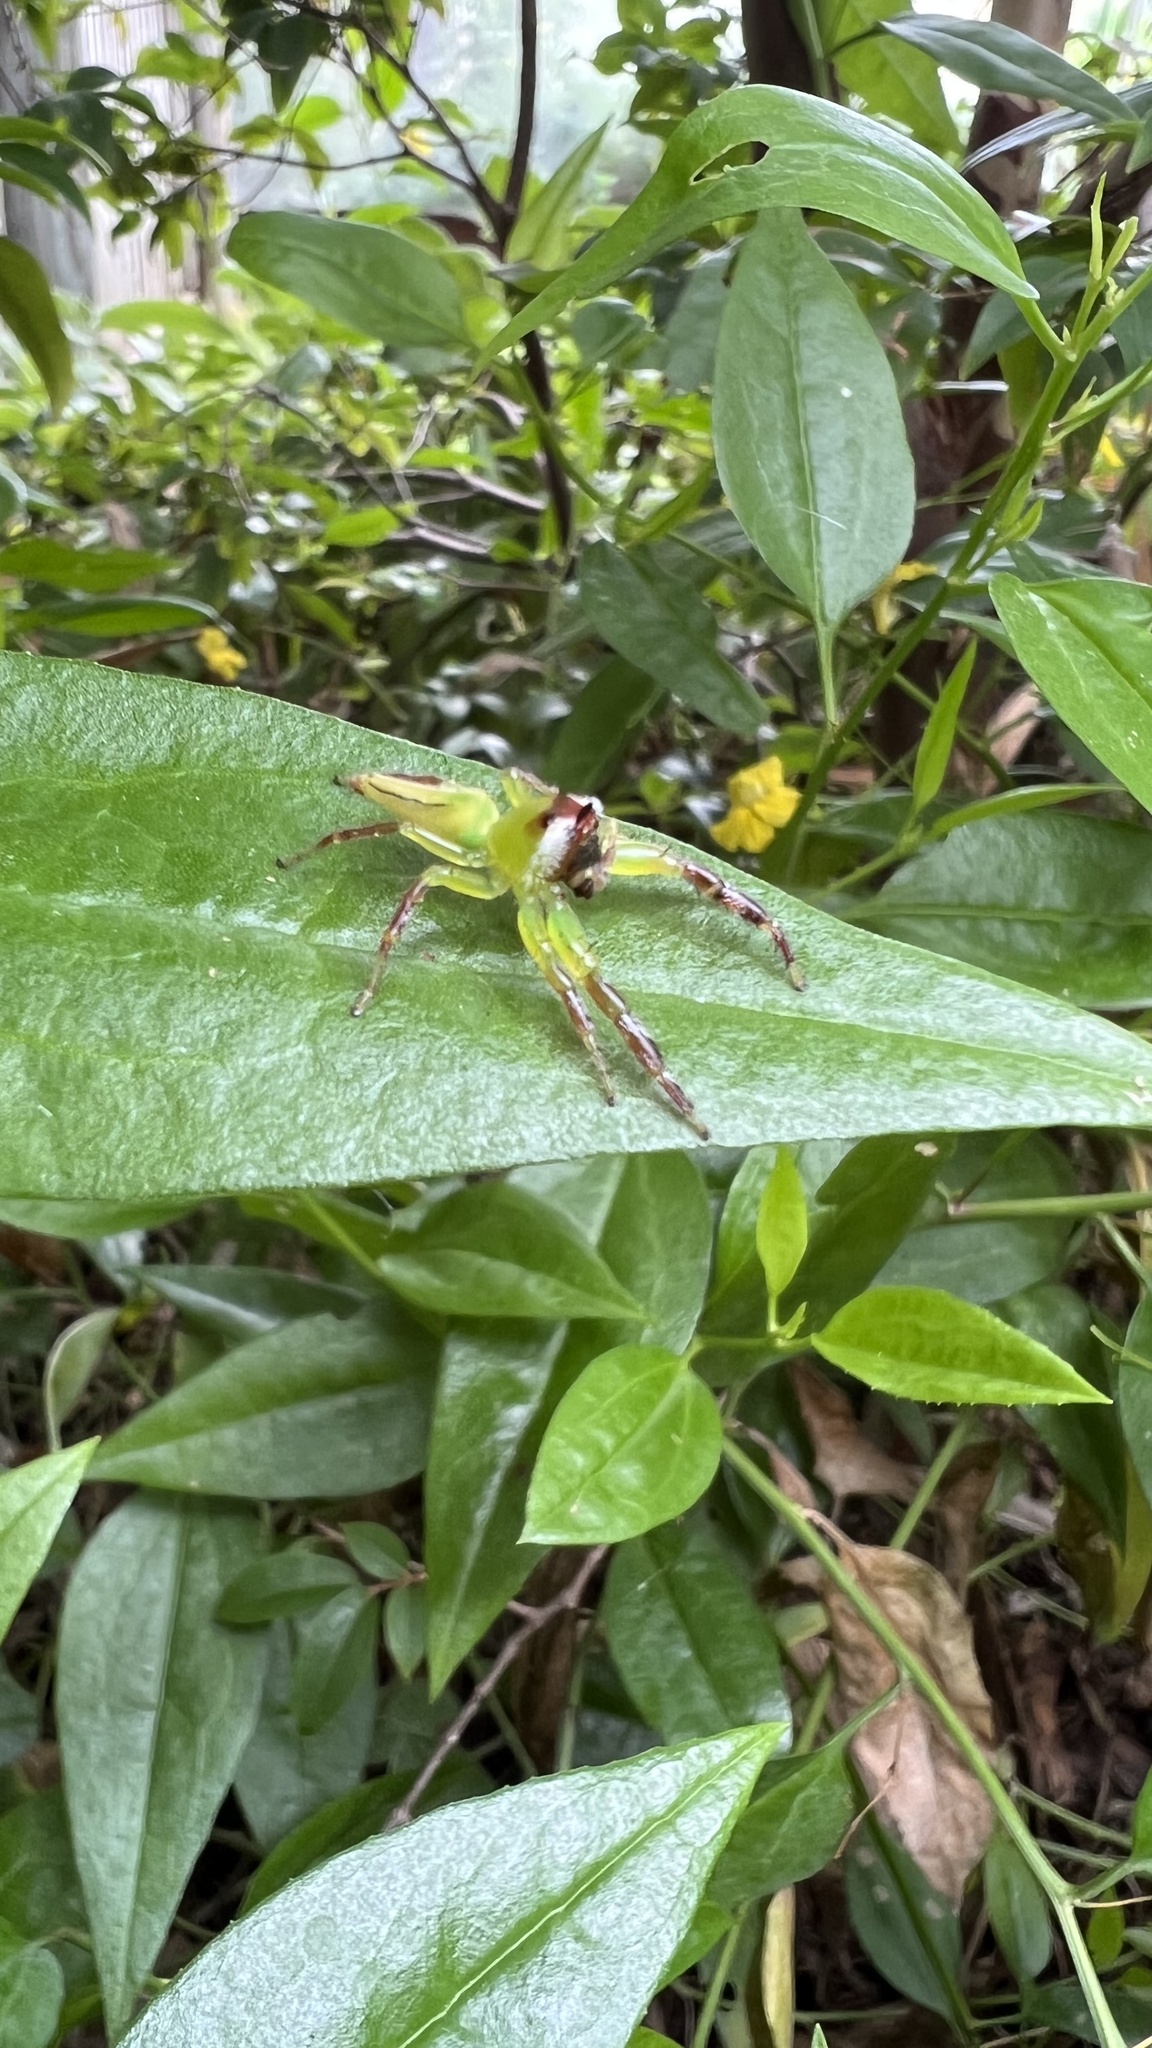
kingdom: Animalia
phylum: Arthropoda
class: Arachnida
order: Araneae
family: Salticidae
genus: Mopsus
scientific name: Mopsus mormon
